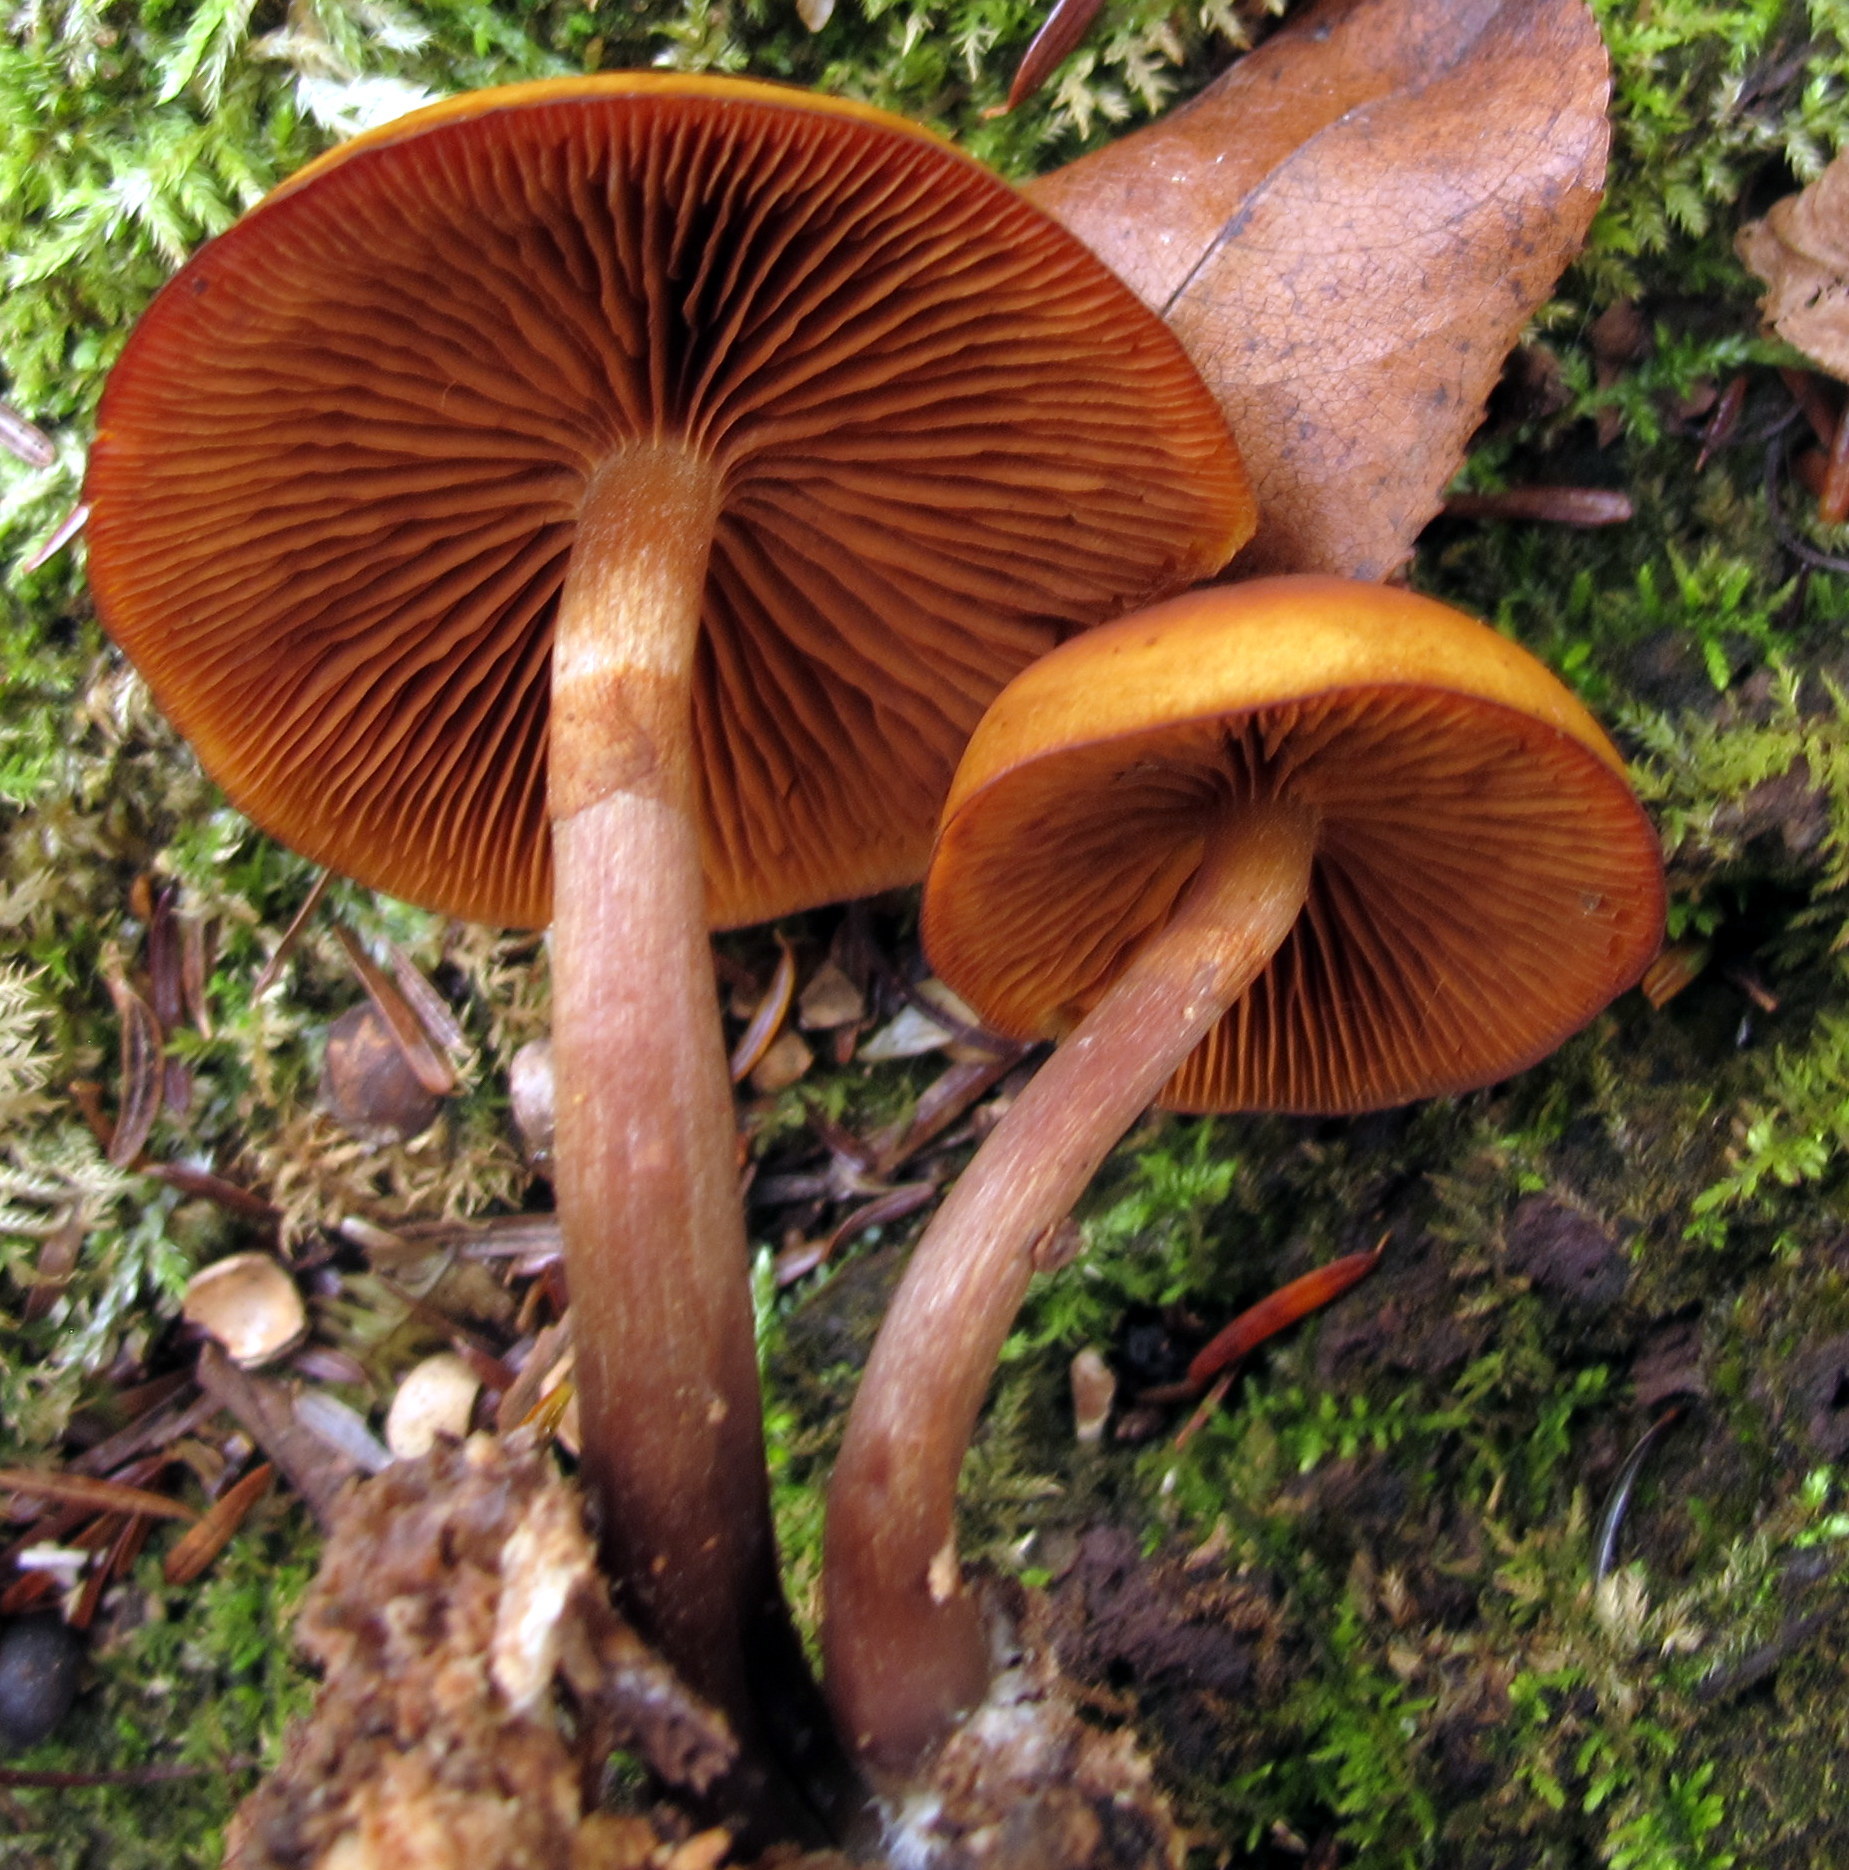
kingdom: Fungi
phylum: Basidiomycota
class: Agaricomycetes
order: Agaricales
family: Hymenogastraceae
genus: Galerina
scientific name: Galerina marginata
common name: Funeral bell
